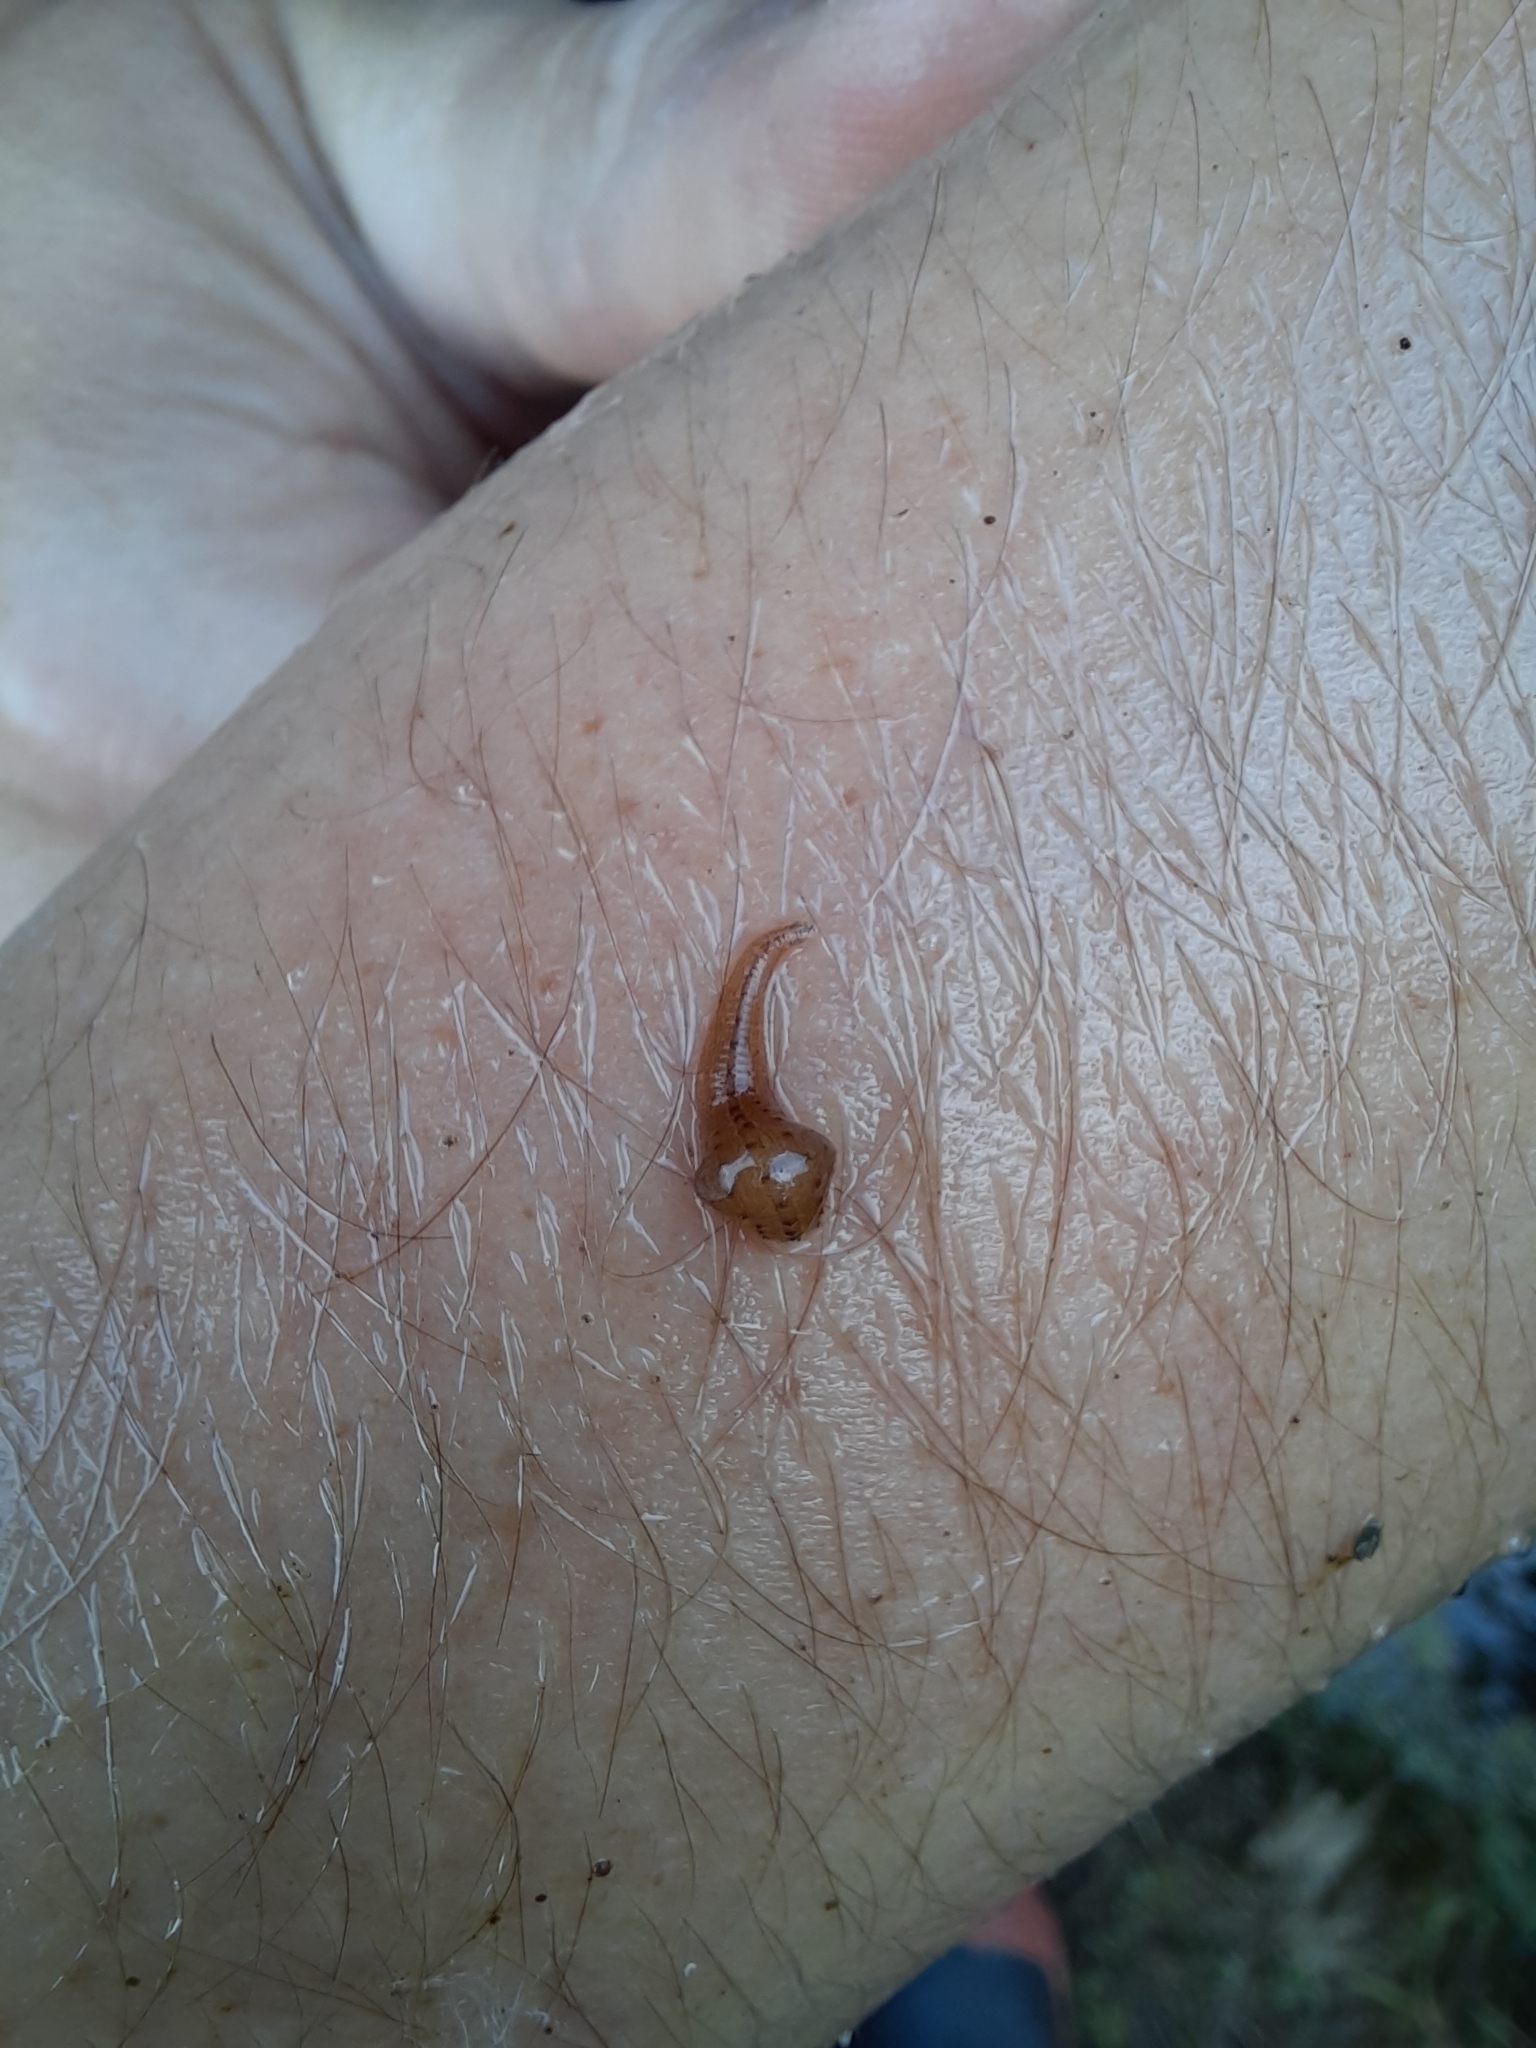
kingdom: Animalia
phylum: Annelida
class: Clitellata
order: Rhynchobdellida
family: Glossiphoniidae
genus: Helobdella
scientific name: Helobdella europaea
